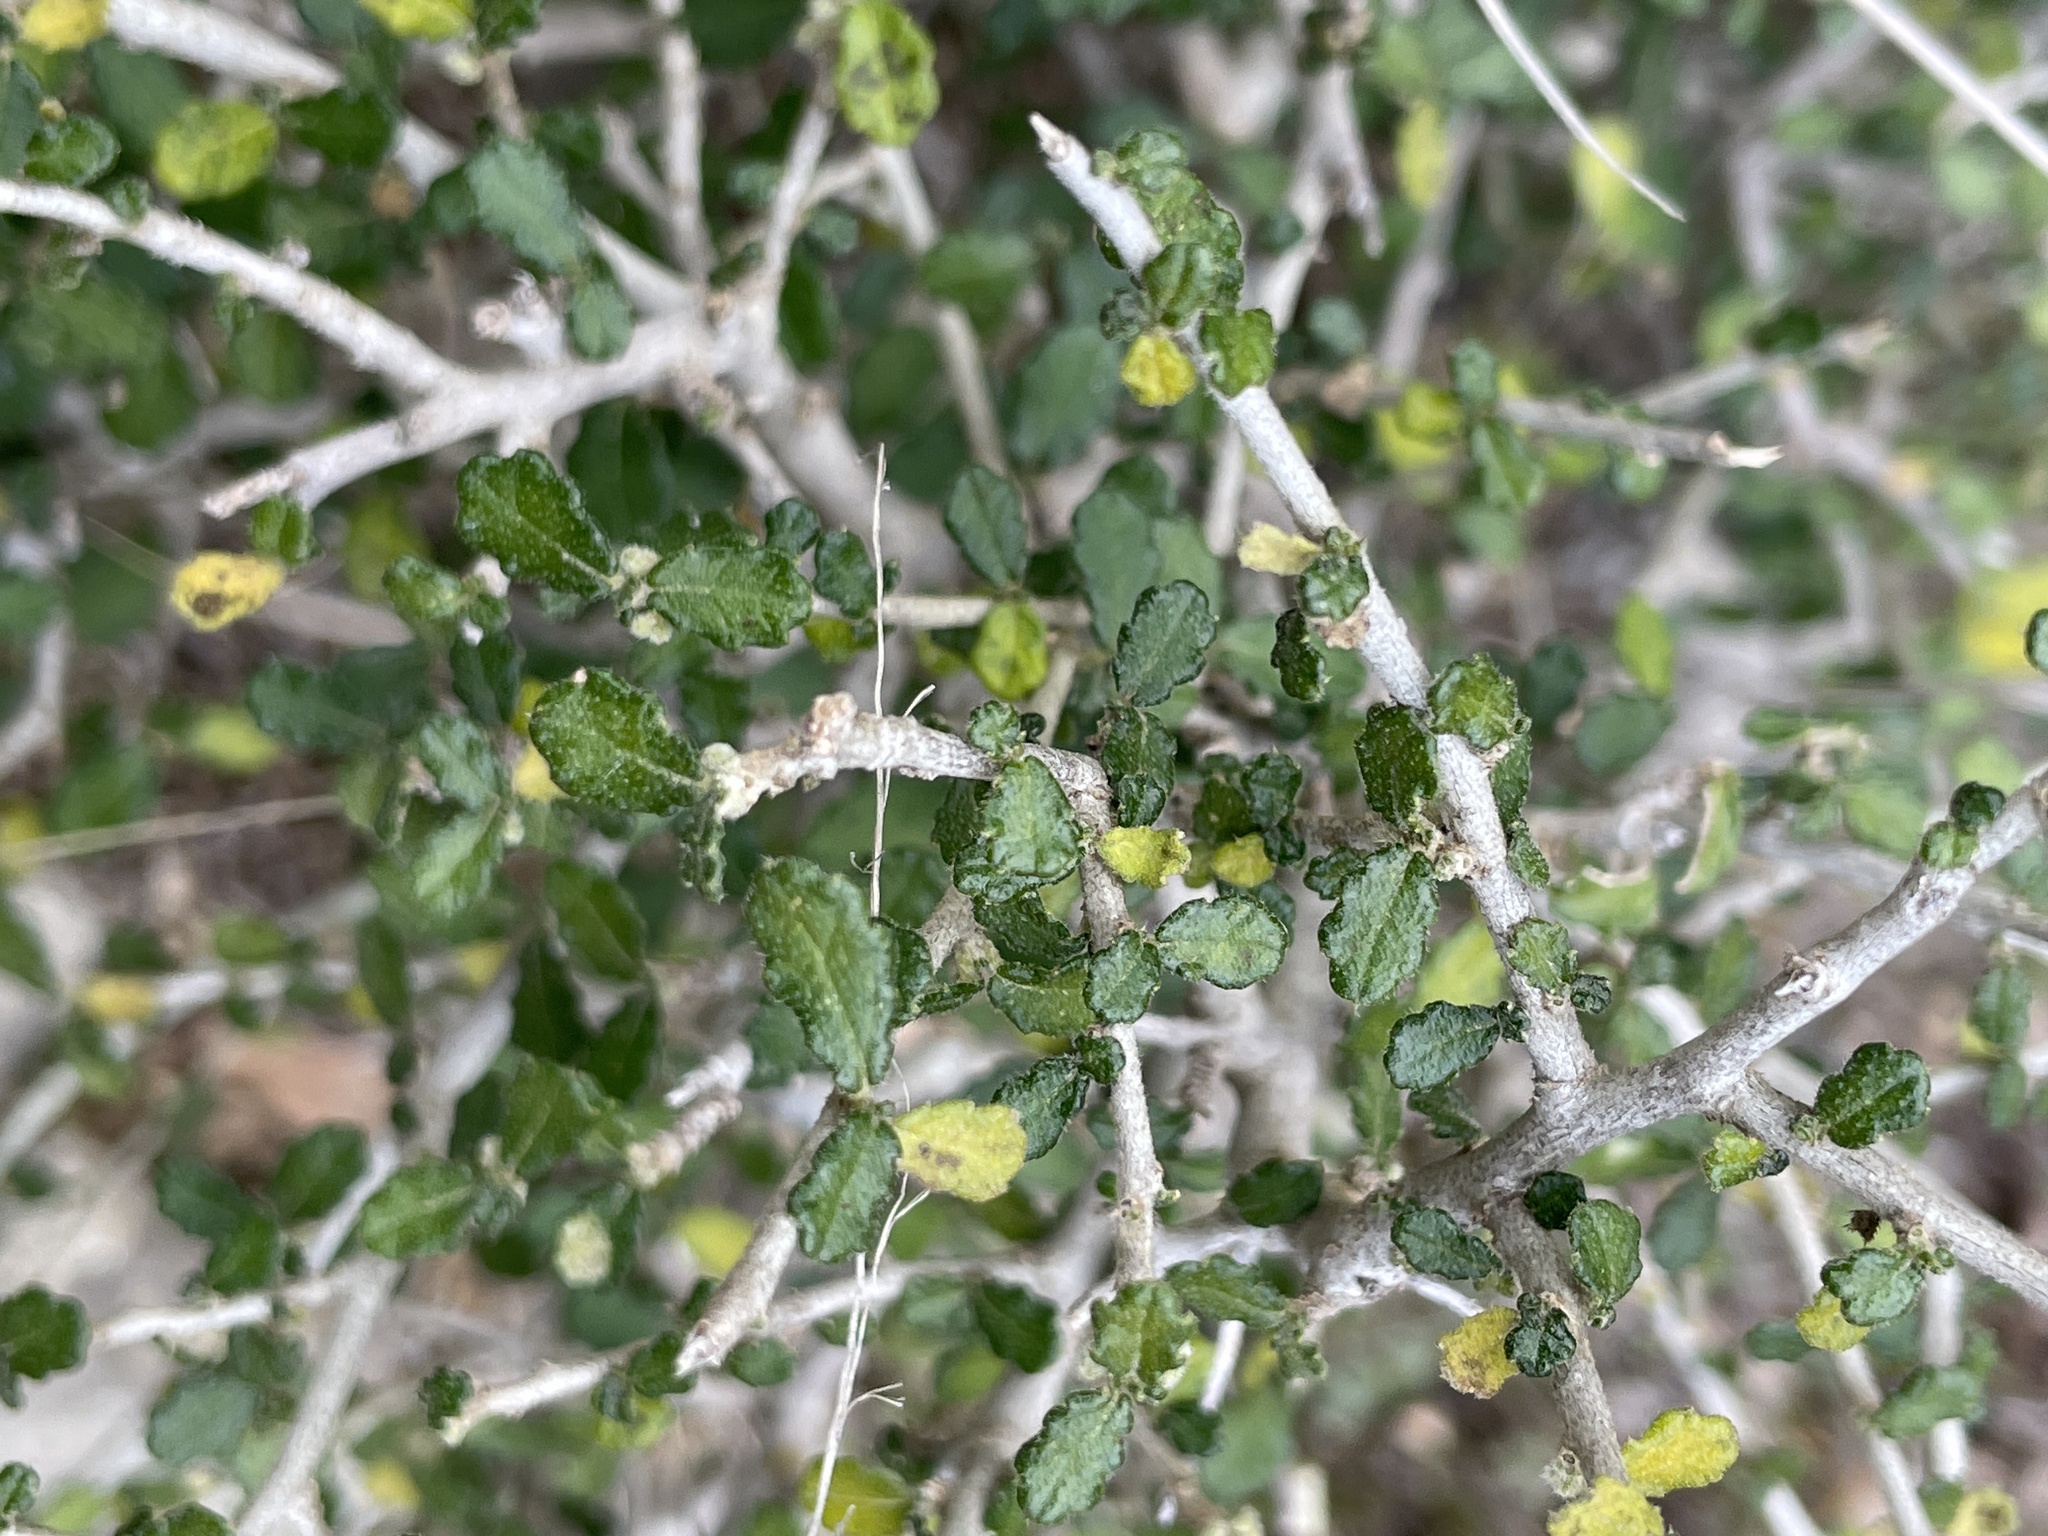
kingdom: Plantae
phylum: Tracheophyta
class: Magnoliopsida
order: Malpighiales
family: Euphorbiaceae
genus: Bernardia
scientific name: Bernardia myricifolia
